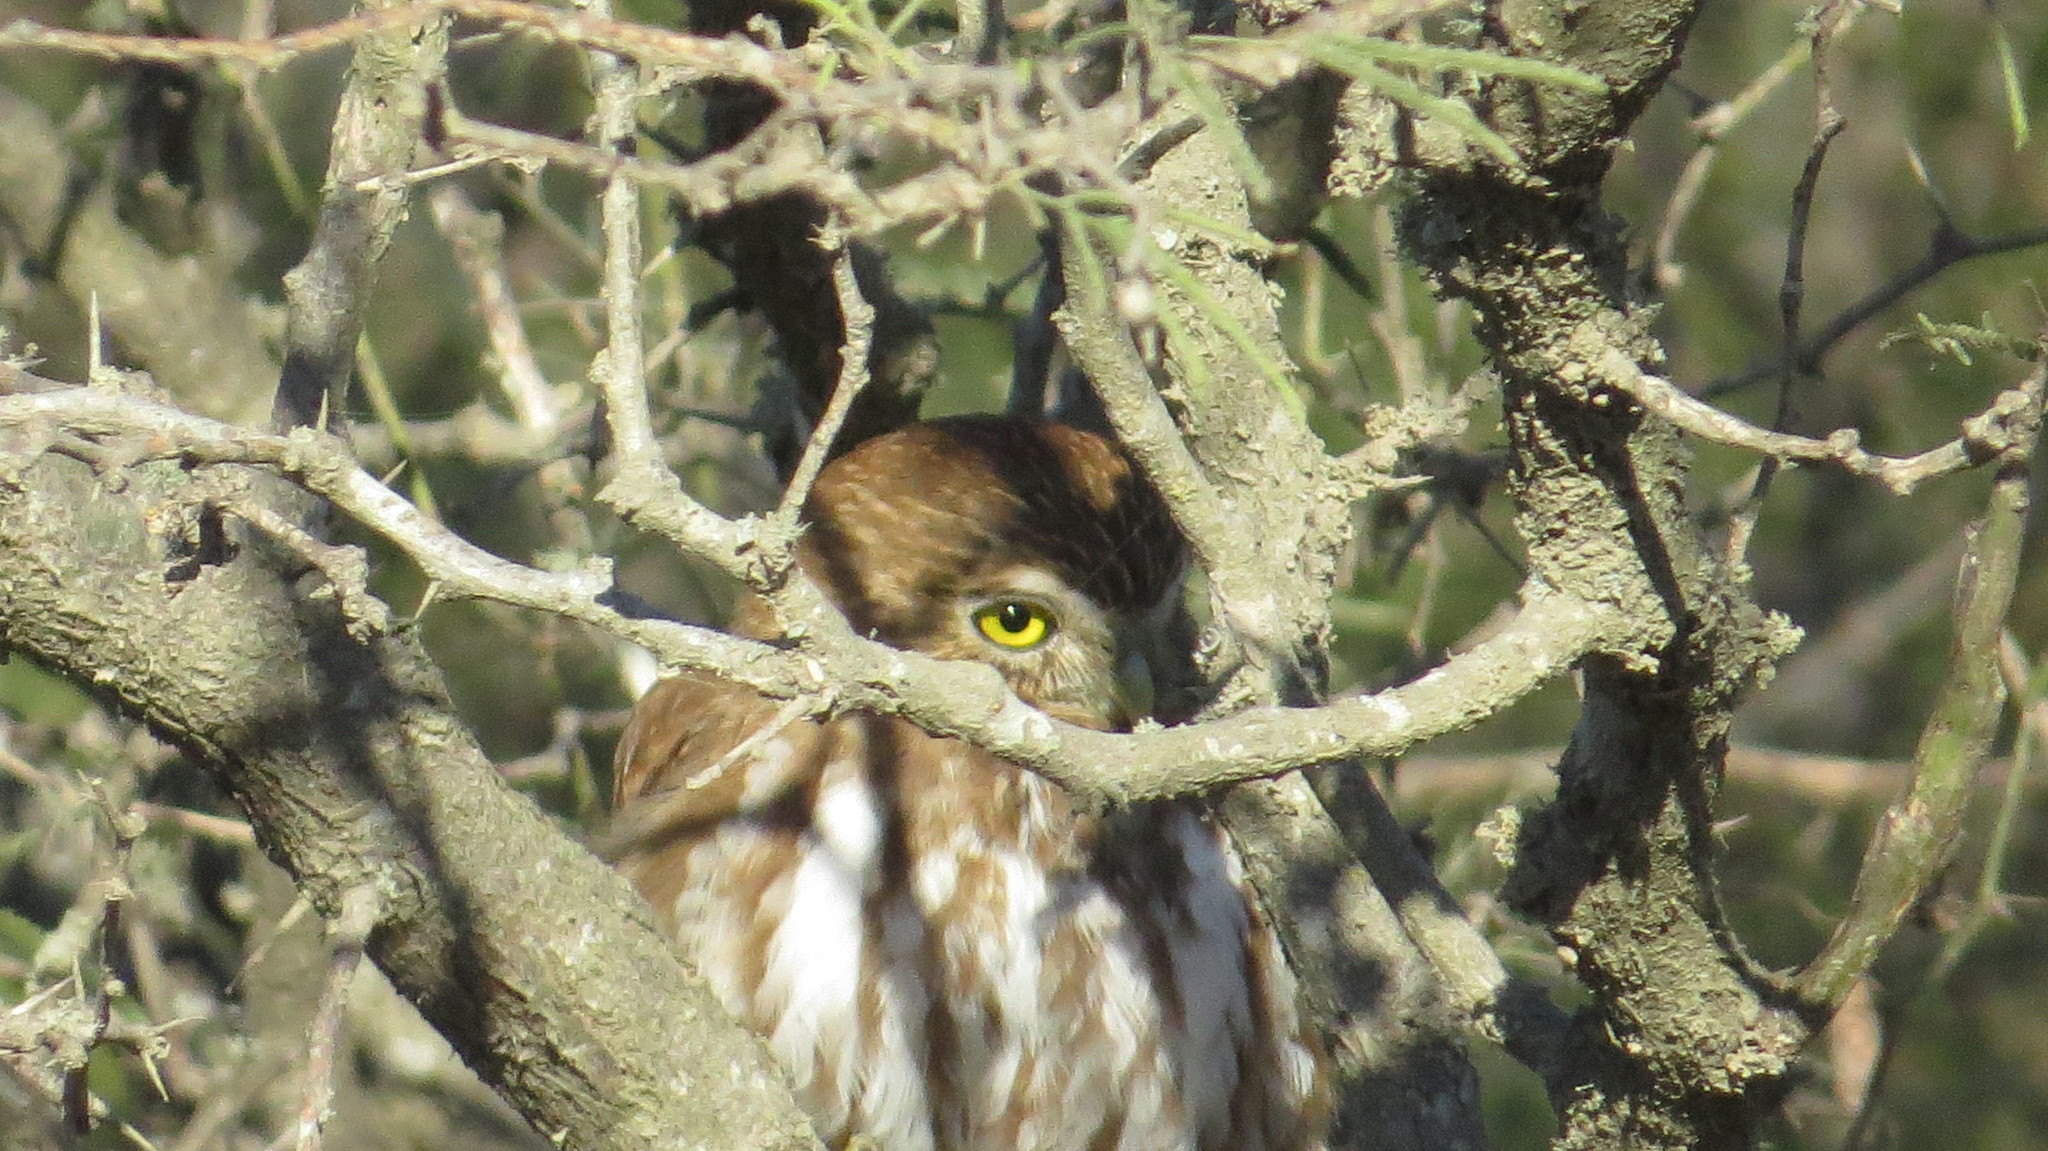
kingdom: Animalia
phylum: Chordata
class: Aves
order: Strigiformes
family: Strigidae
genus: Glaucidium
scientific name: Glaucidium brasilianum
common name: Ferruginous pygmy-owl
